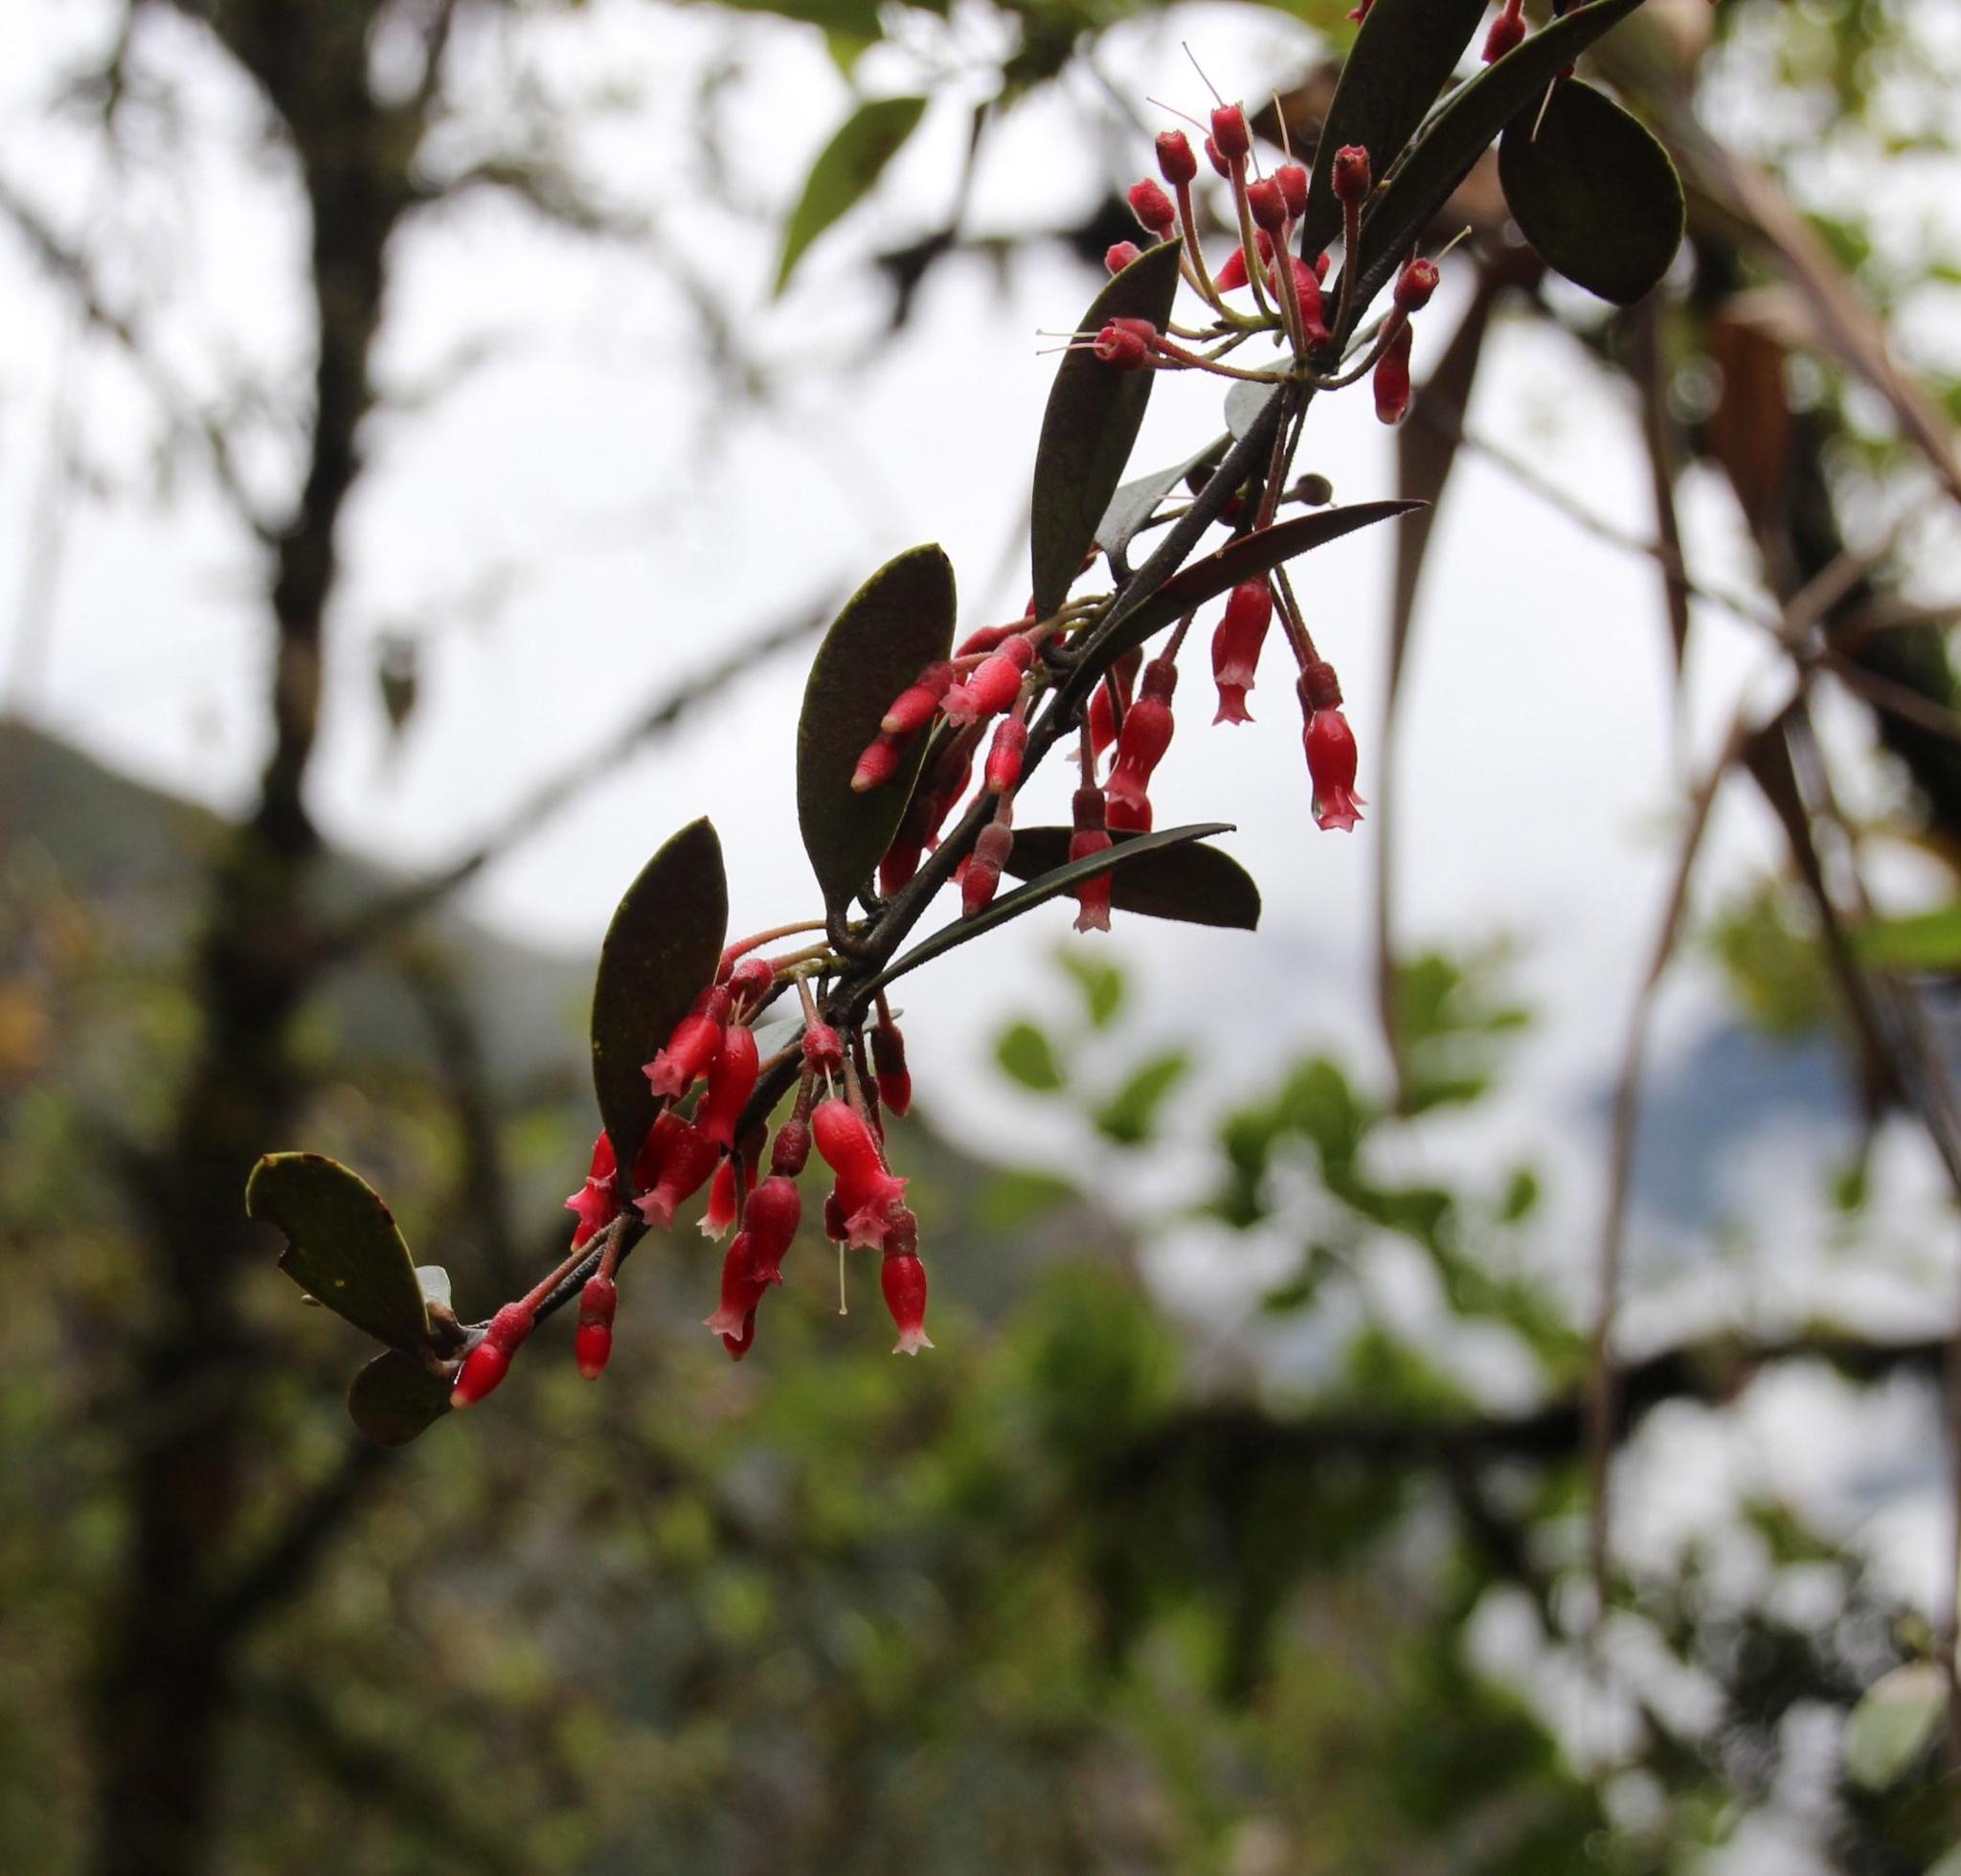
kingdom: Plantae
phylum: Tracheophyta
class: Magnoliopsida
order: Ericales
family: Ericaceae
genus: Thibaudia
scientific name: Thibaudia diphylla
